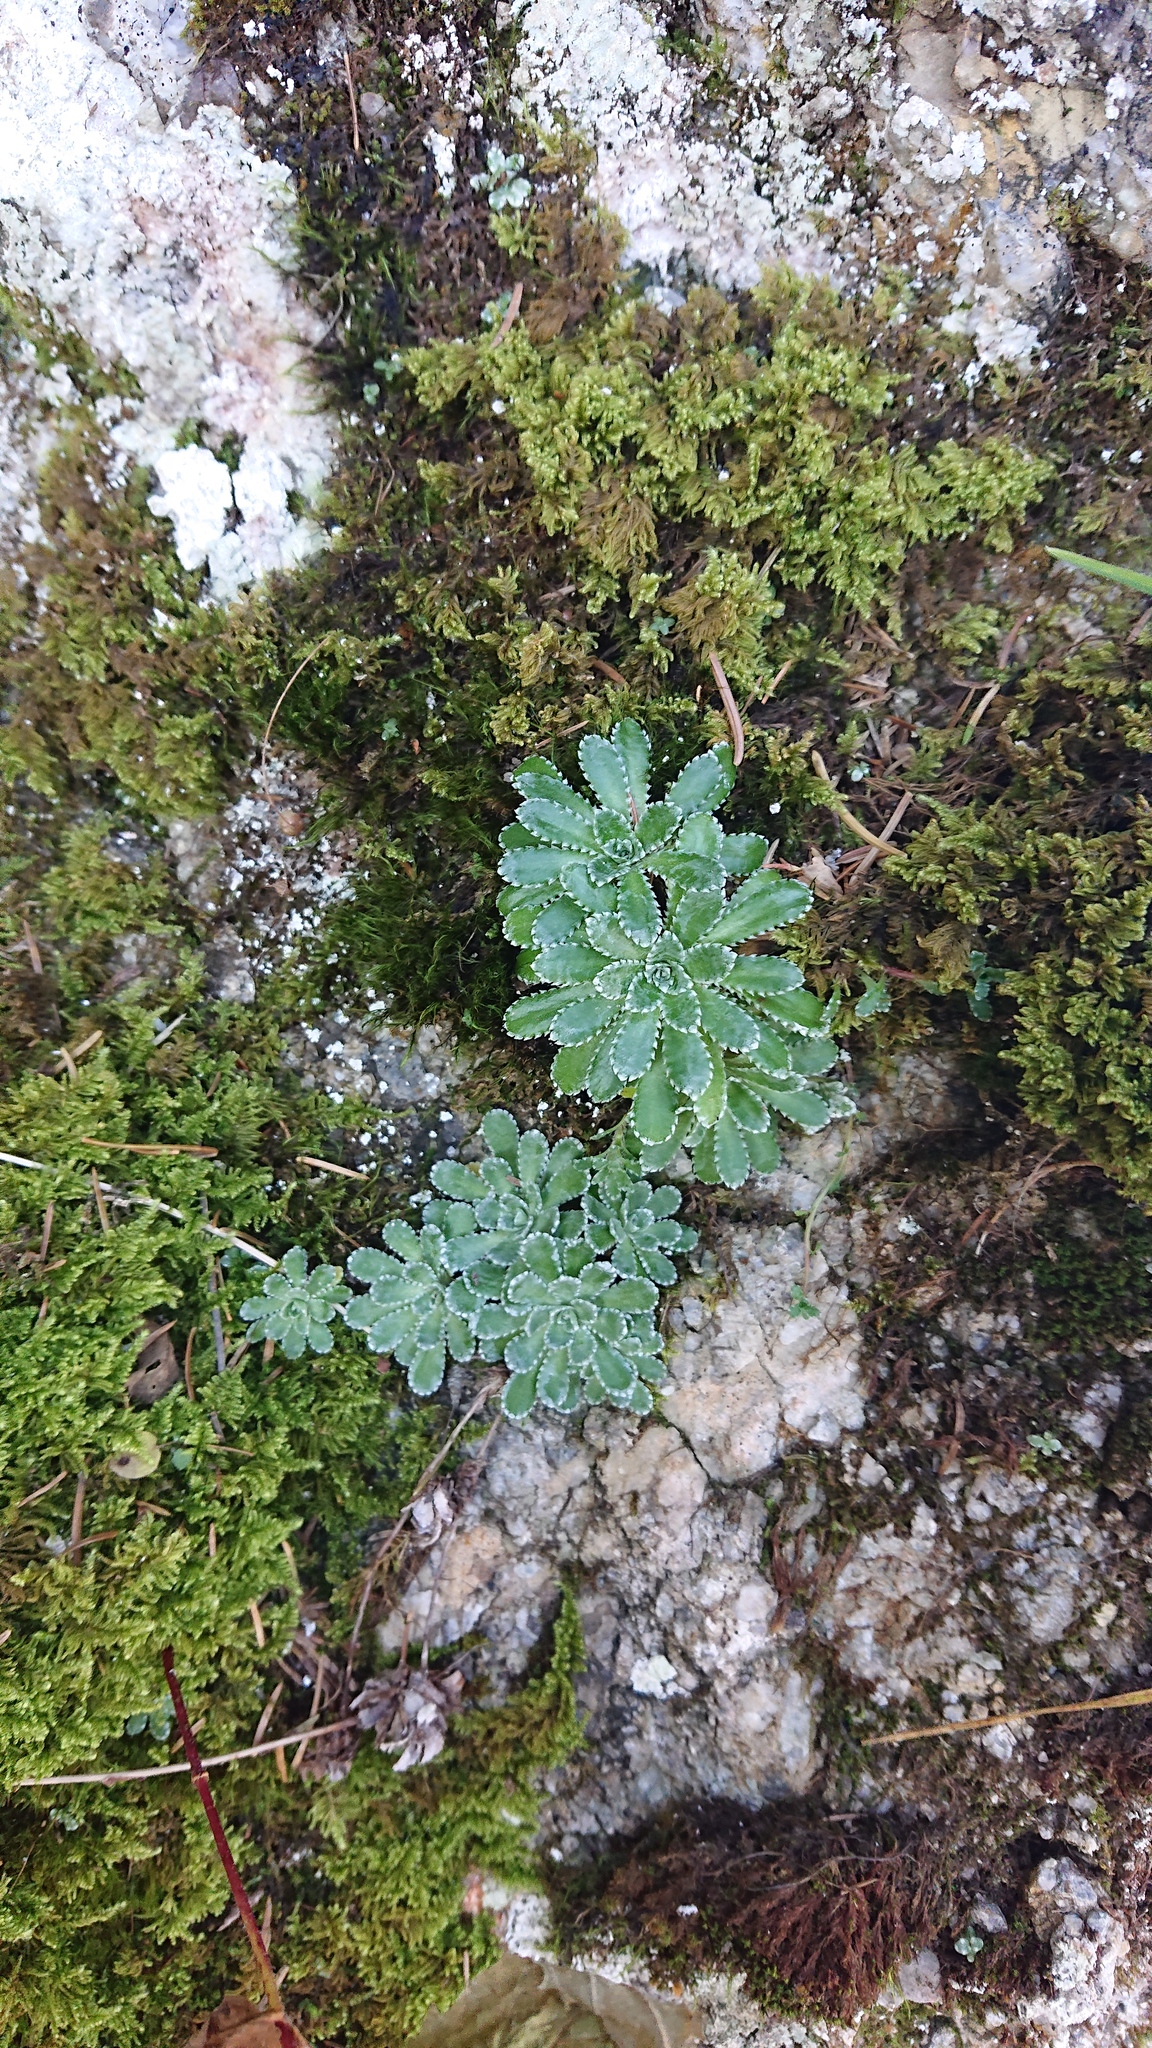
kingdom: Plantae
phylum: Tracheophyta
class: Magnoliopsida
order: Saxifragales
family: Saxifragaceae
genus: Saxifraga
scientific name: Saxifraga paniculata
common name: Livelong saxifrage
